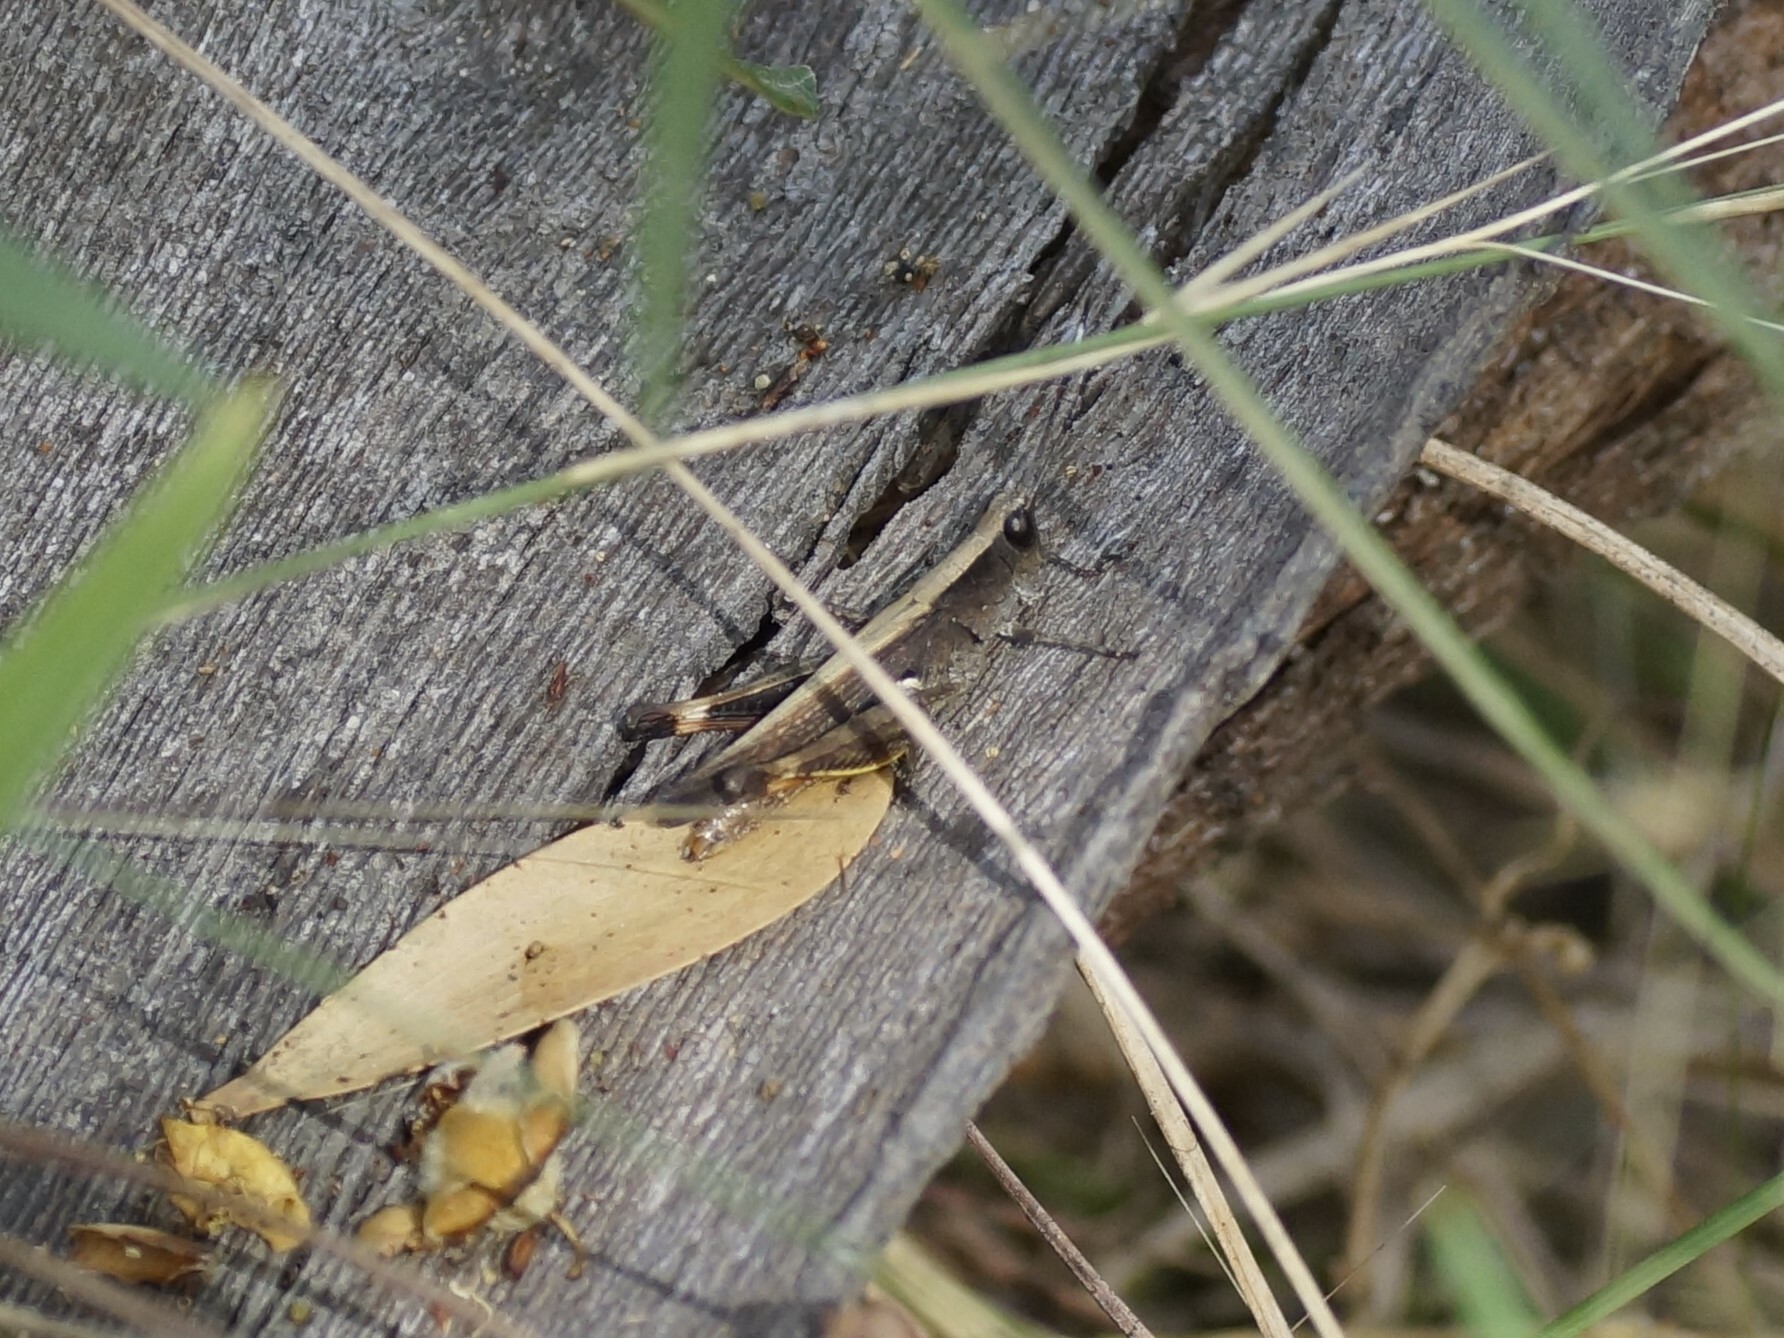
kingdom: Animalia
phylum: Arthropoda
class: Insecta
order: Orthoptera
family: Acrididae
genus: Rectitropis
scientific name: Rectitropis australis
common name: Queensland white-tips
